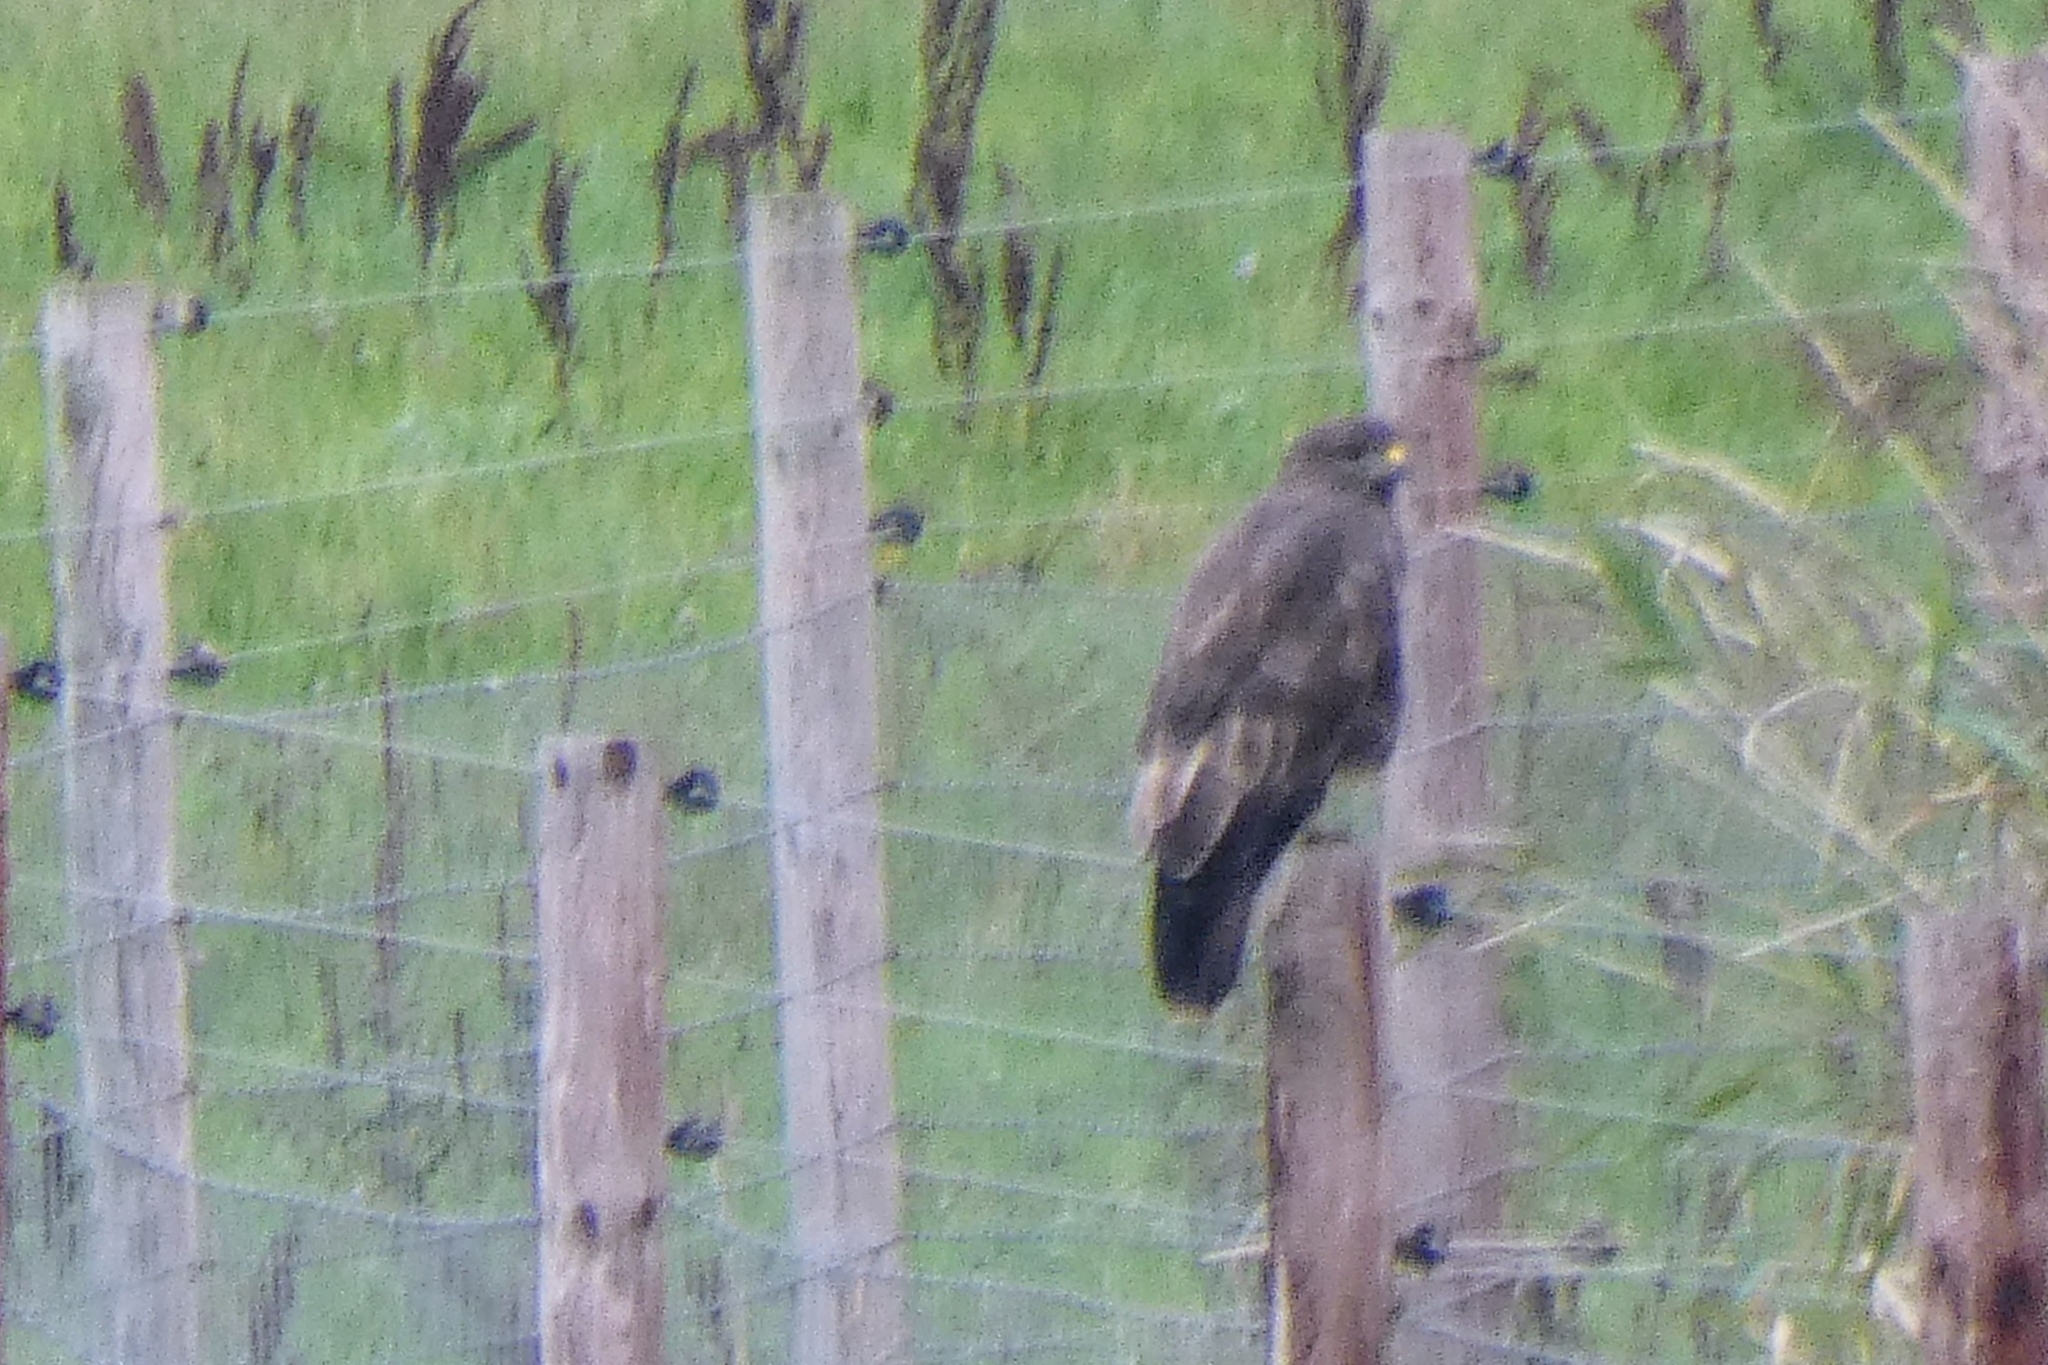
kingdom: Animalia
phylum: Chordata
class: Aves
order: Accipitriformes
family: Accipitridae
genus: Buteo
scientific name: Buteo buteo
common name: Common buzzard
